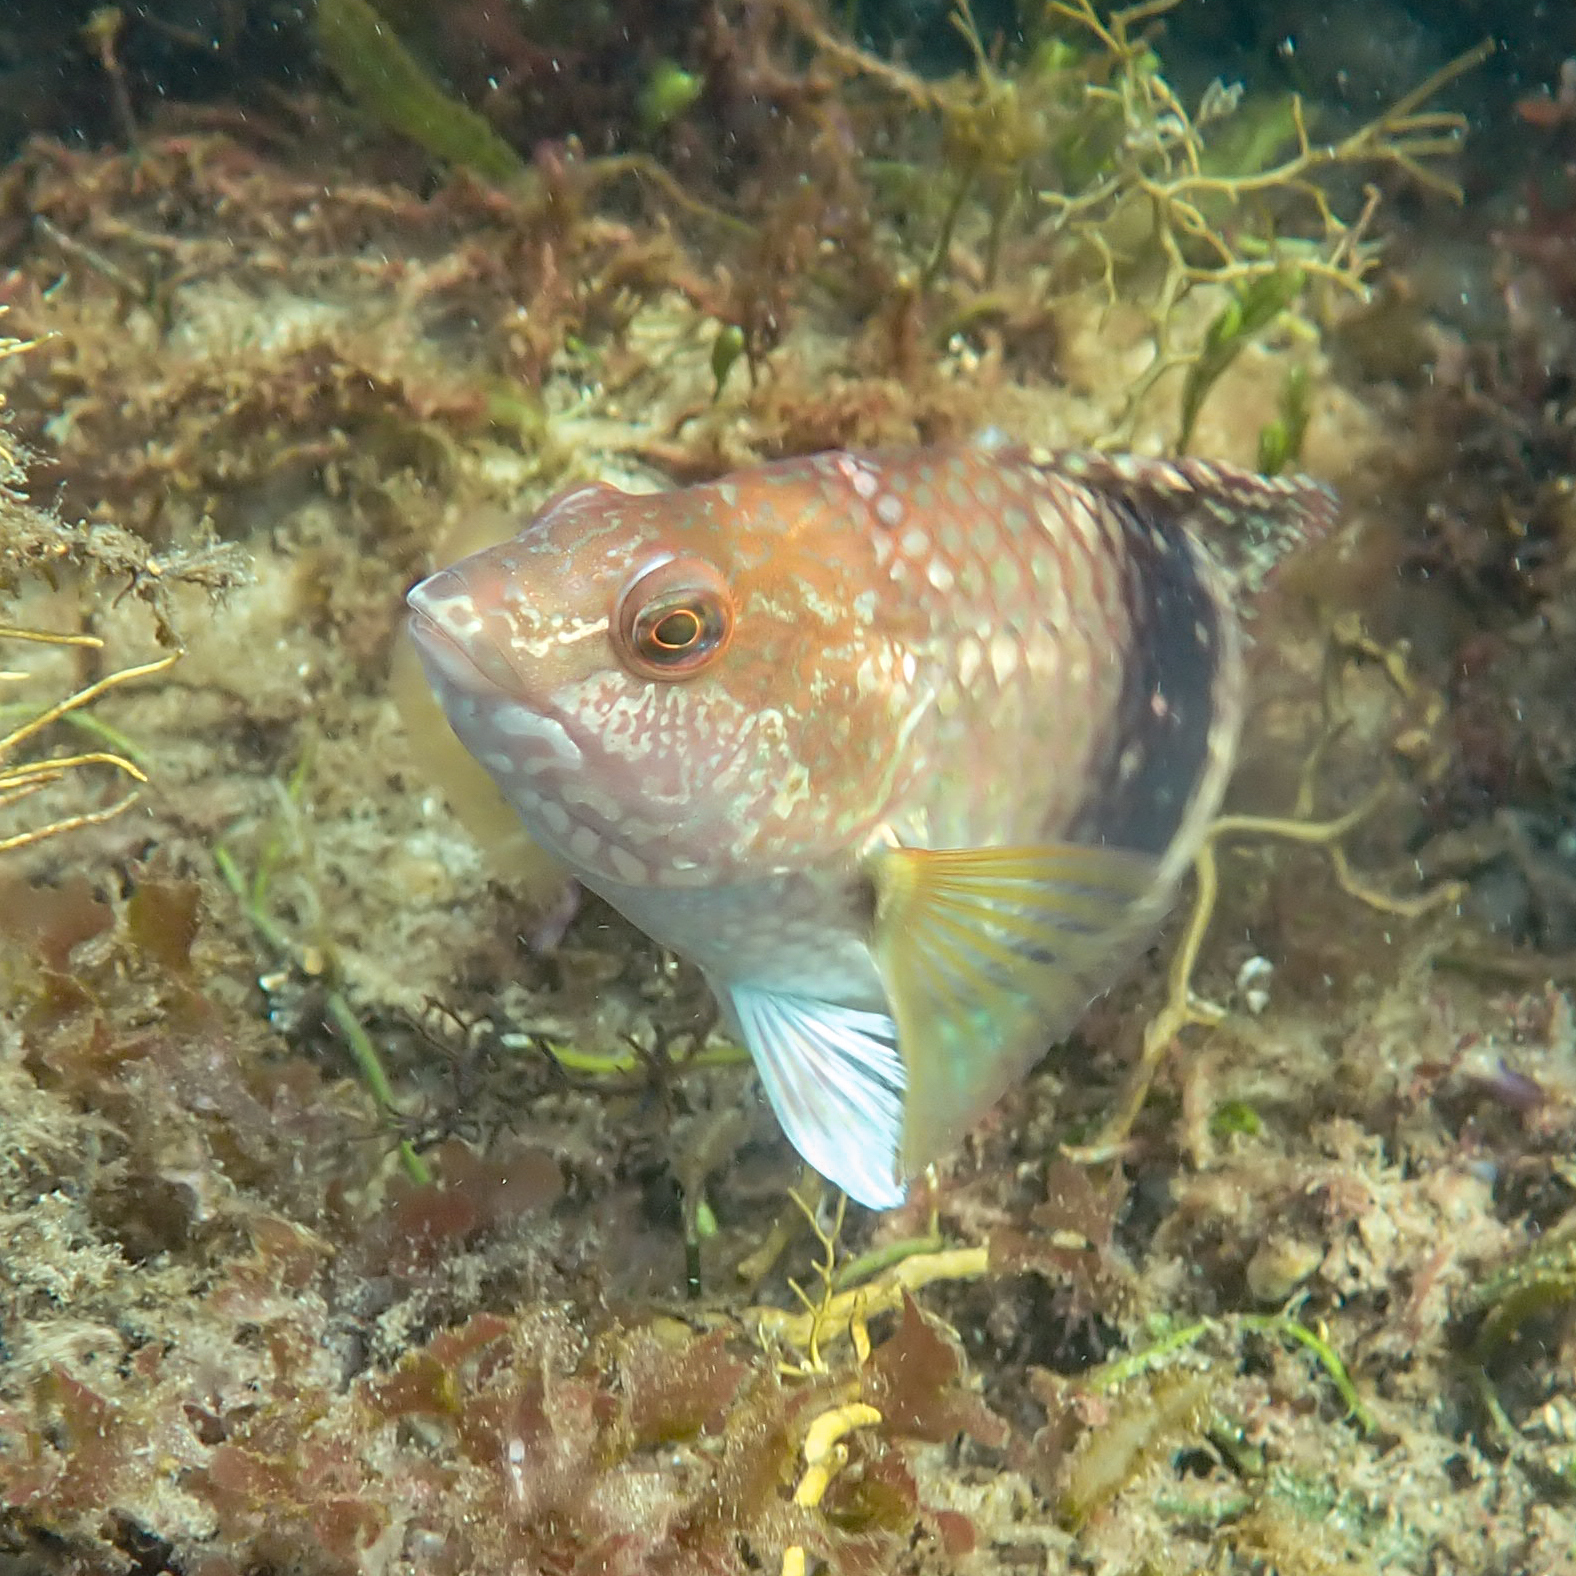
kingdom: Animalia
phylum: Chordata
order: Perciformes
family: Labridae
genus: Notolabrus
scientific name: Notolabrus tetricus
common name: Blue-throated parrotfish
